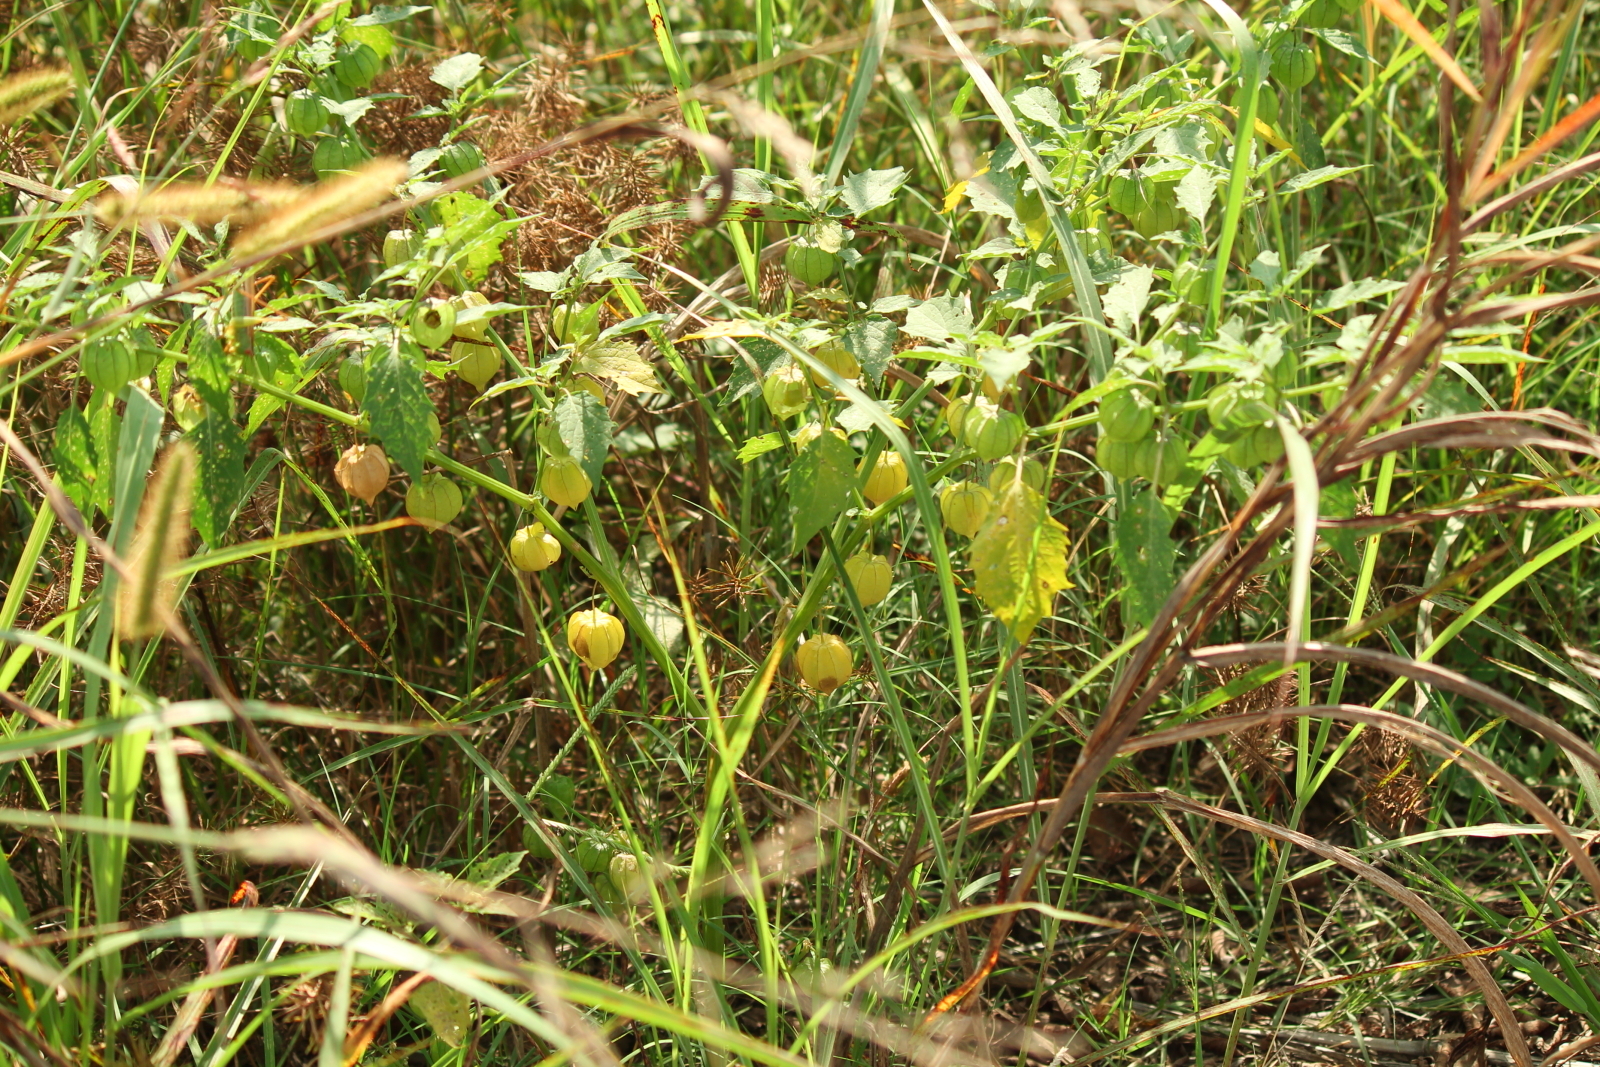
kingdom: Plantae
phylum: Tracheophyta
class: Magnoliopsida
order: Solanales
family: Solanaceae
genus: Physalis
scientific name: Physalis angulata
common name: Angular winter-cherry
